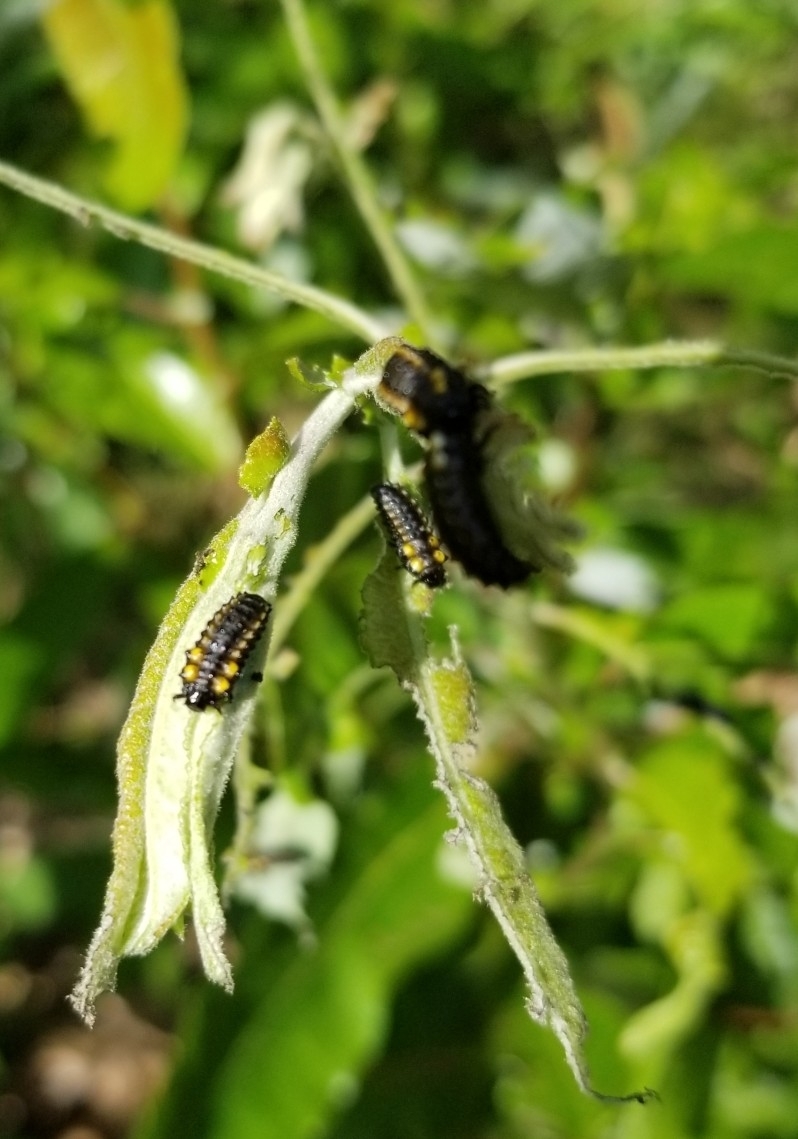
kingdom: Animalia
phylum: Arthropoda
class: Insecta
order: Coleoptera
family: Chrysomelidae
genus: Chrysomela
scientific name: Chrysomela confluens
